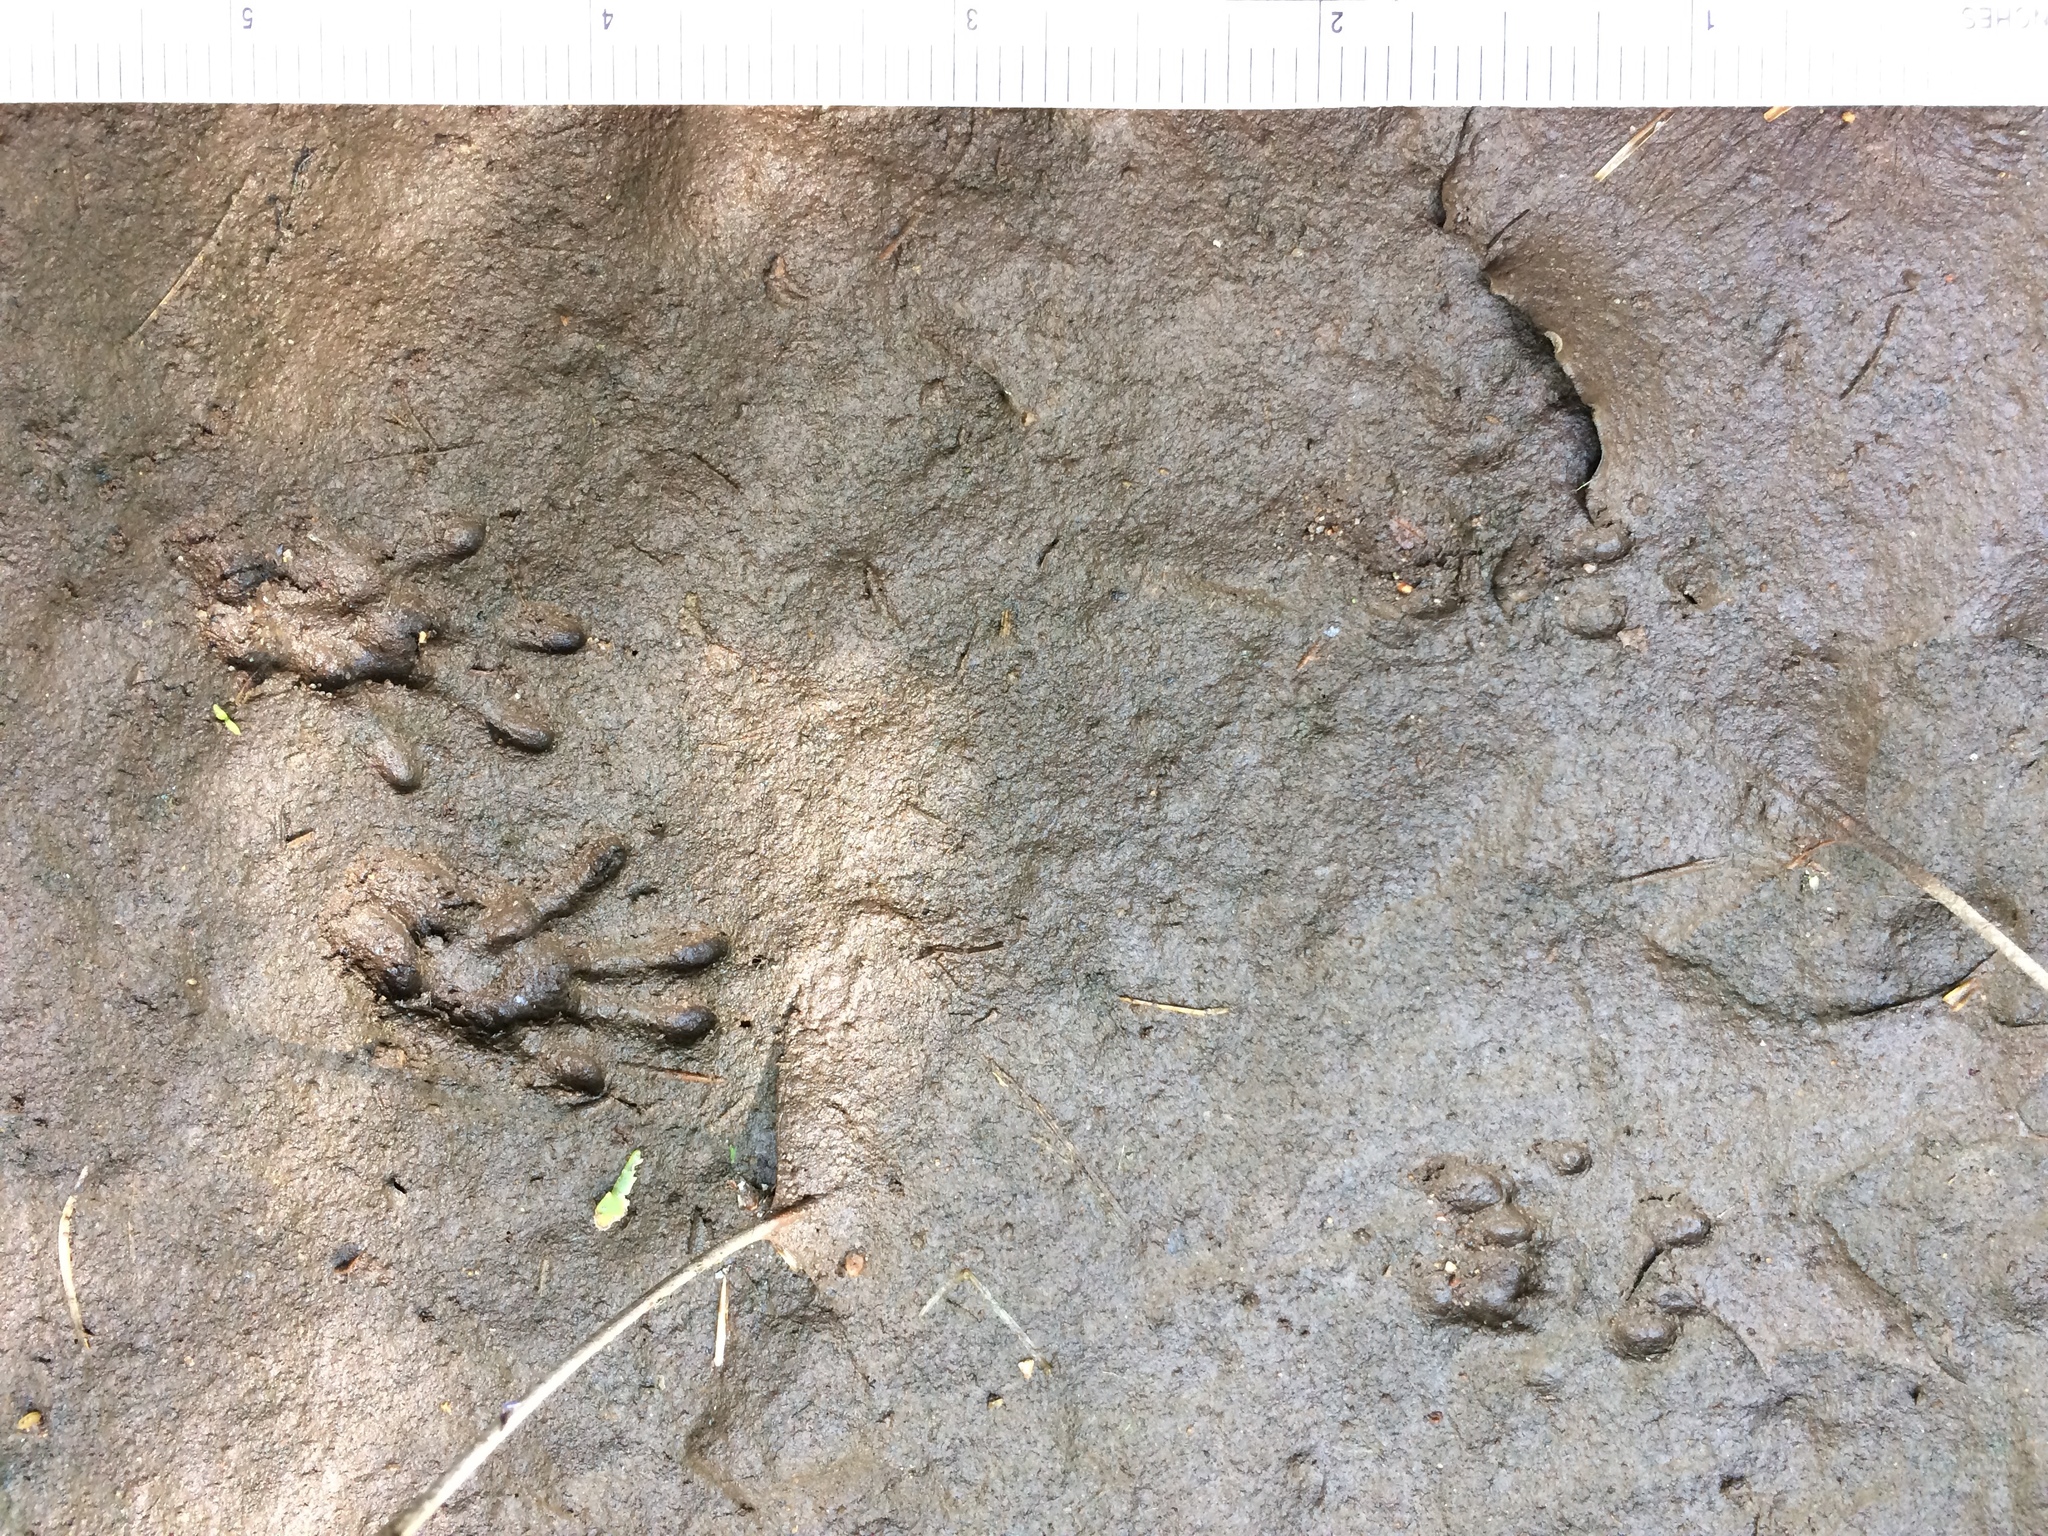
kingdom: Animalia
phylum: Chordata
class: Mammalia
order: Rodentia
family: Sciuridae
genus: Tamiasciurus
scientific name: Tamiasciurus hudsonicus
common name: Red squirrel
